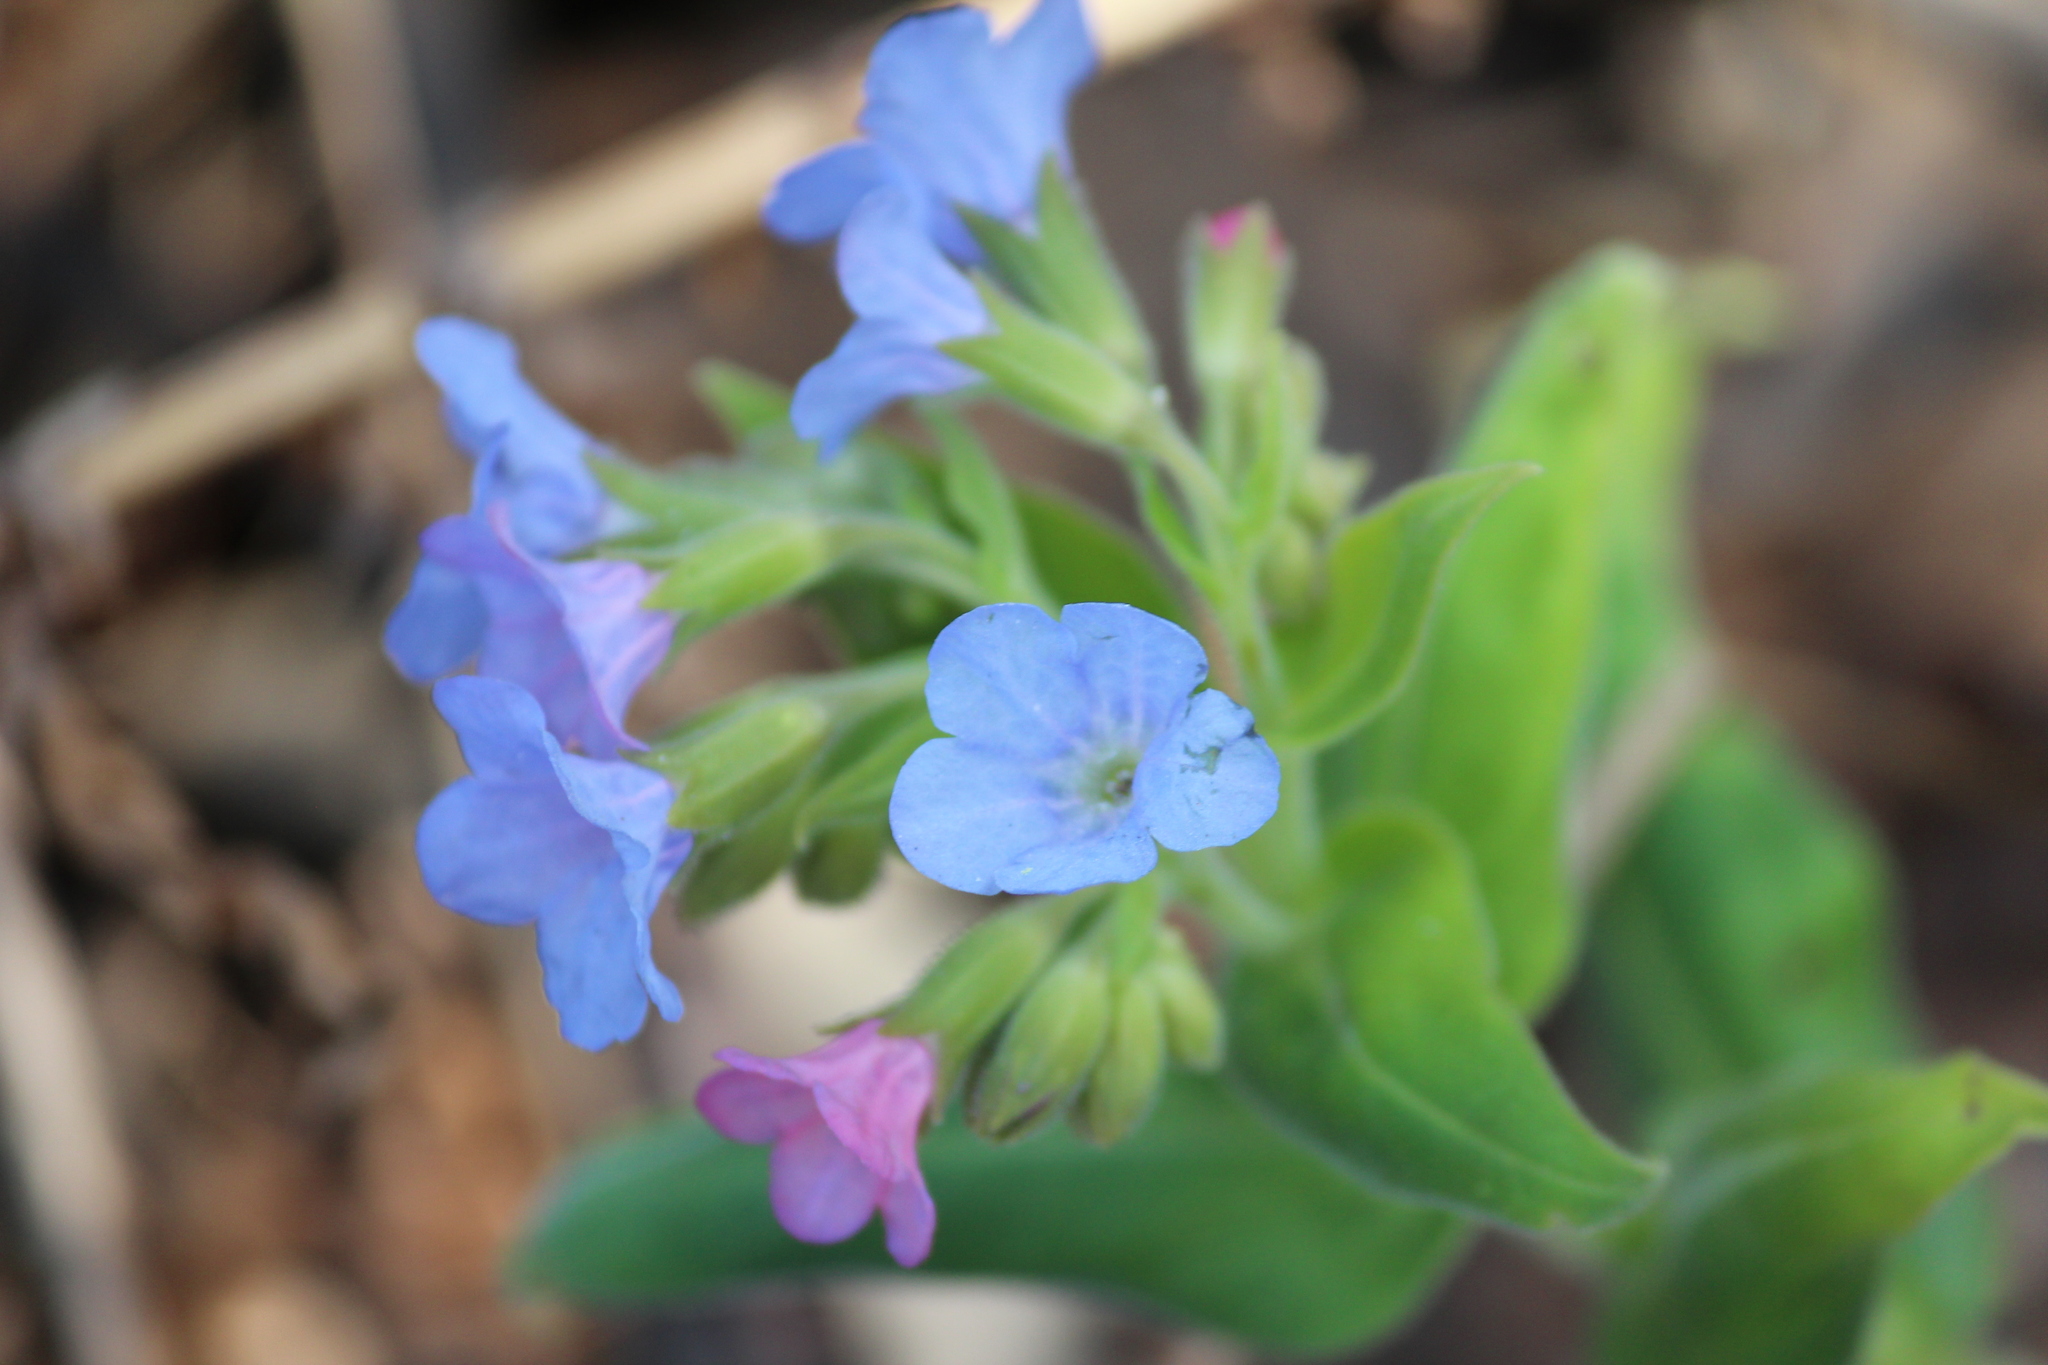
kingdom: Plantae
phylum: Tracheophyta
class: Magnoliopsida
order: Boraginales
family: Boraginaceae
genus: Pulmonaria
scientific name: Pulmonaria mollis
